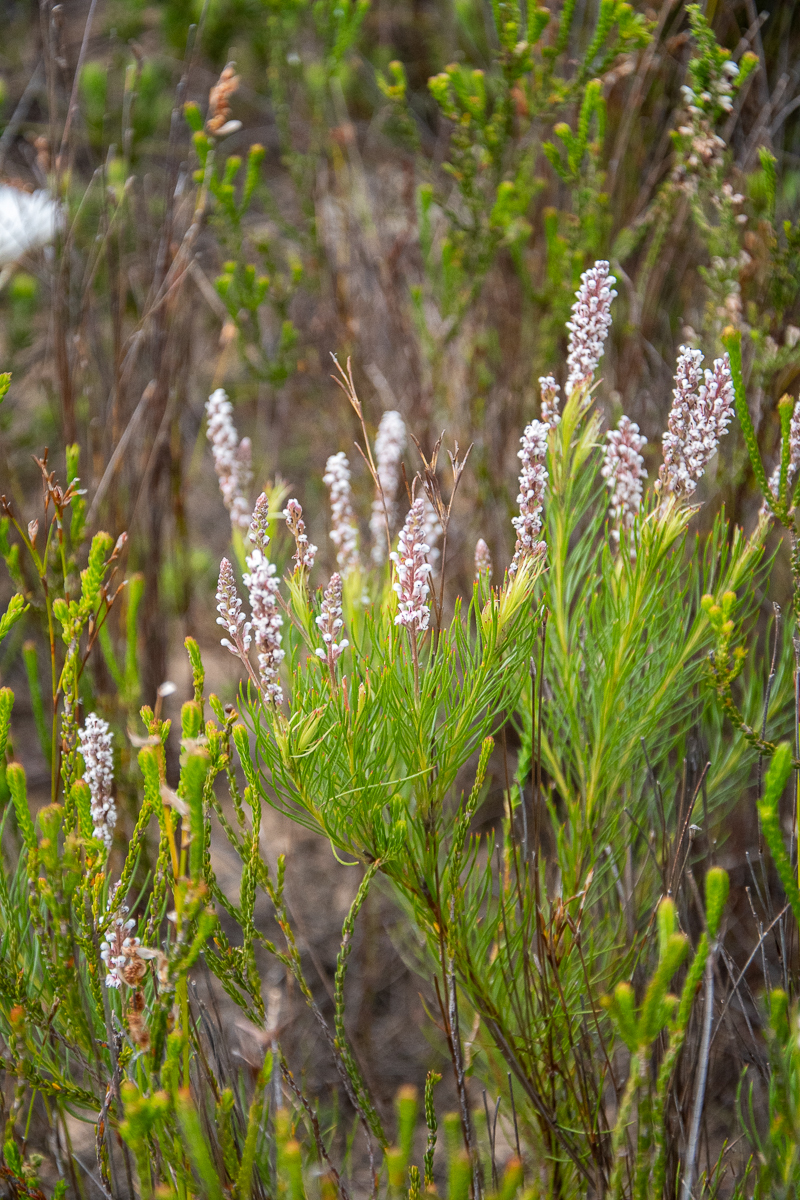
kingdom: Plantae
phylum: Tracheophyta
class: Magnoliopsida
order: Proteales
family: Proteaceae
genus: Spatalla
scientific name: Spatalla racemosa
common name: Lax-stalked spoon
